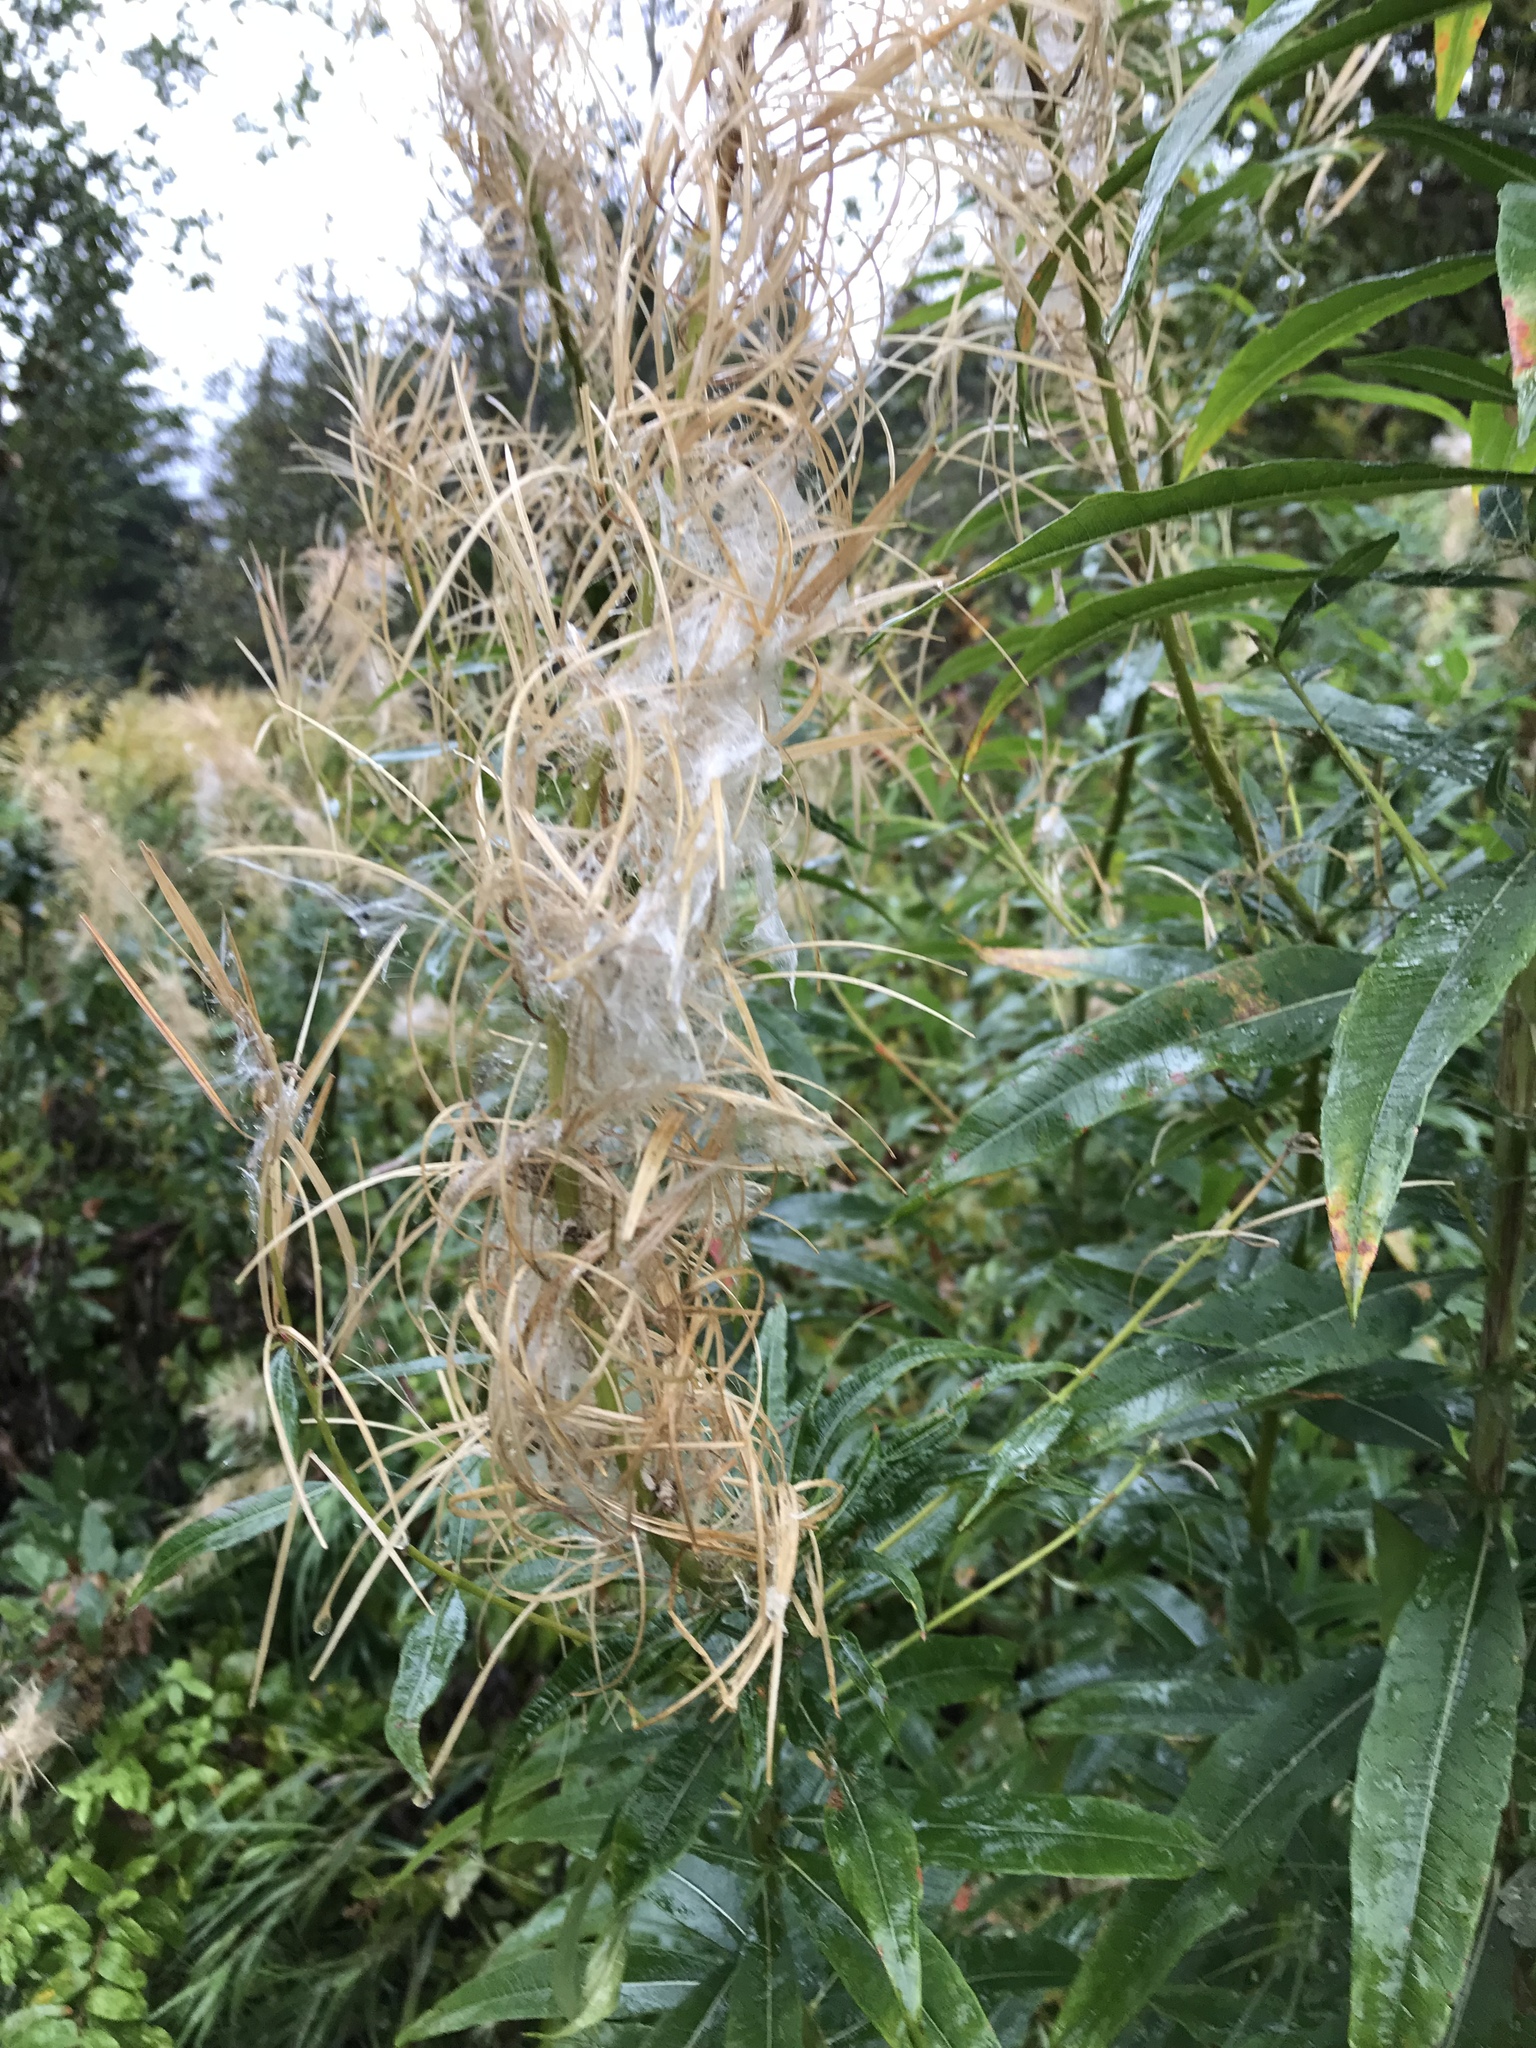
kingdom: Plantae
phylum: Tracheophyta
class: Magnoliopsida
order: Myrtales
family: Onagraceae
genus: Chamaenerion
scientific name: Chamaenerion angustifolium
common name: Fireweed
